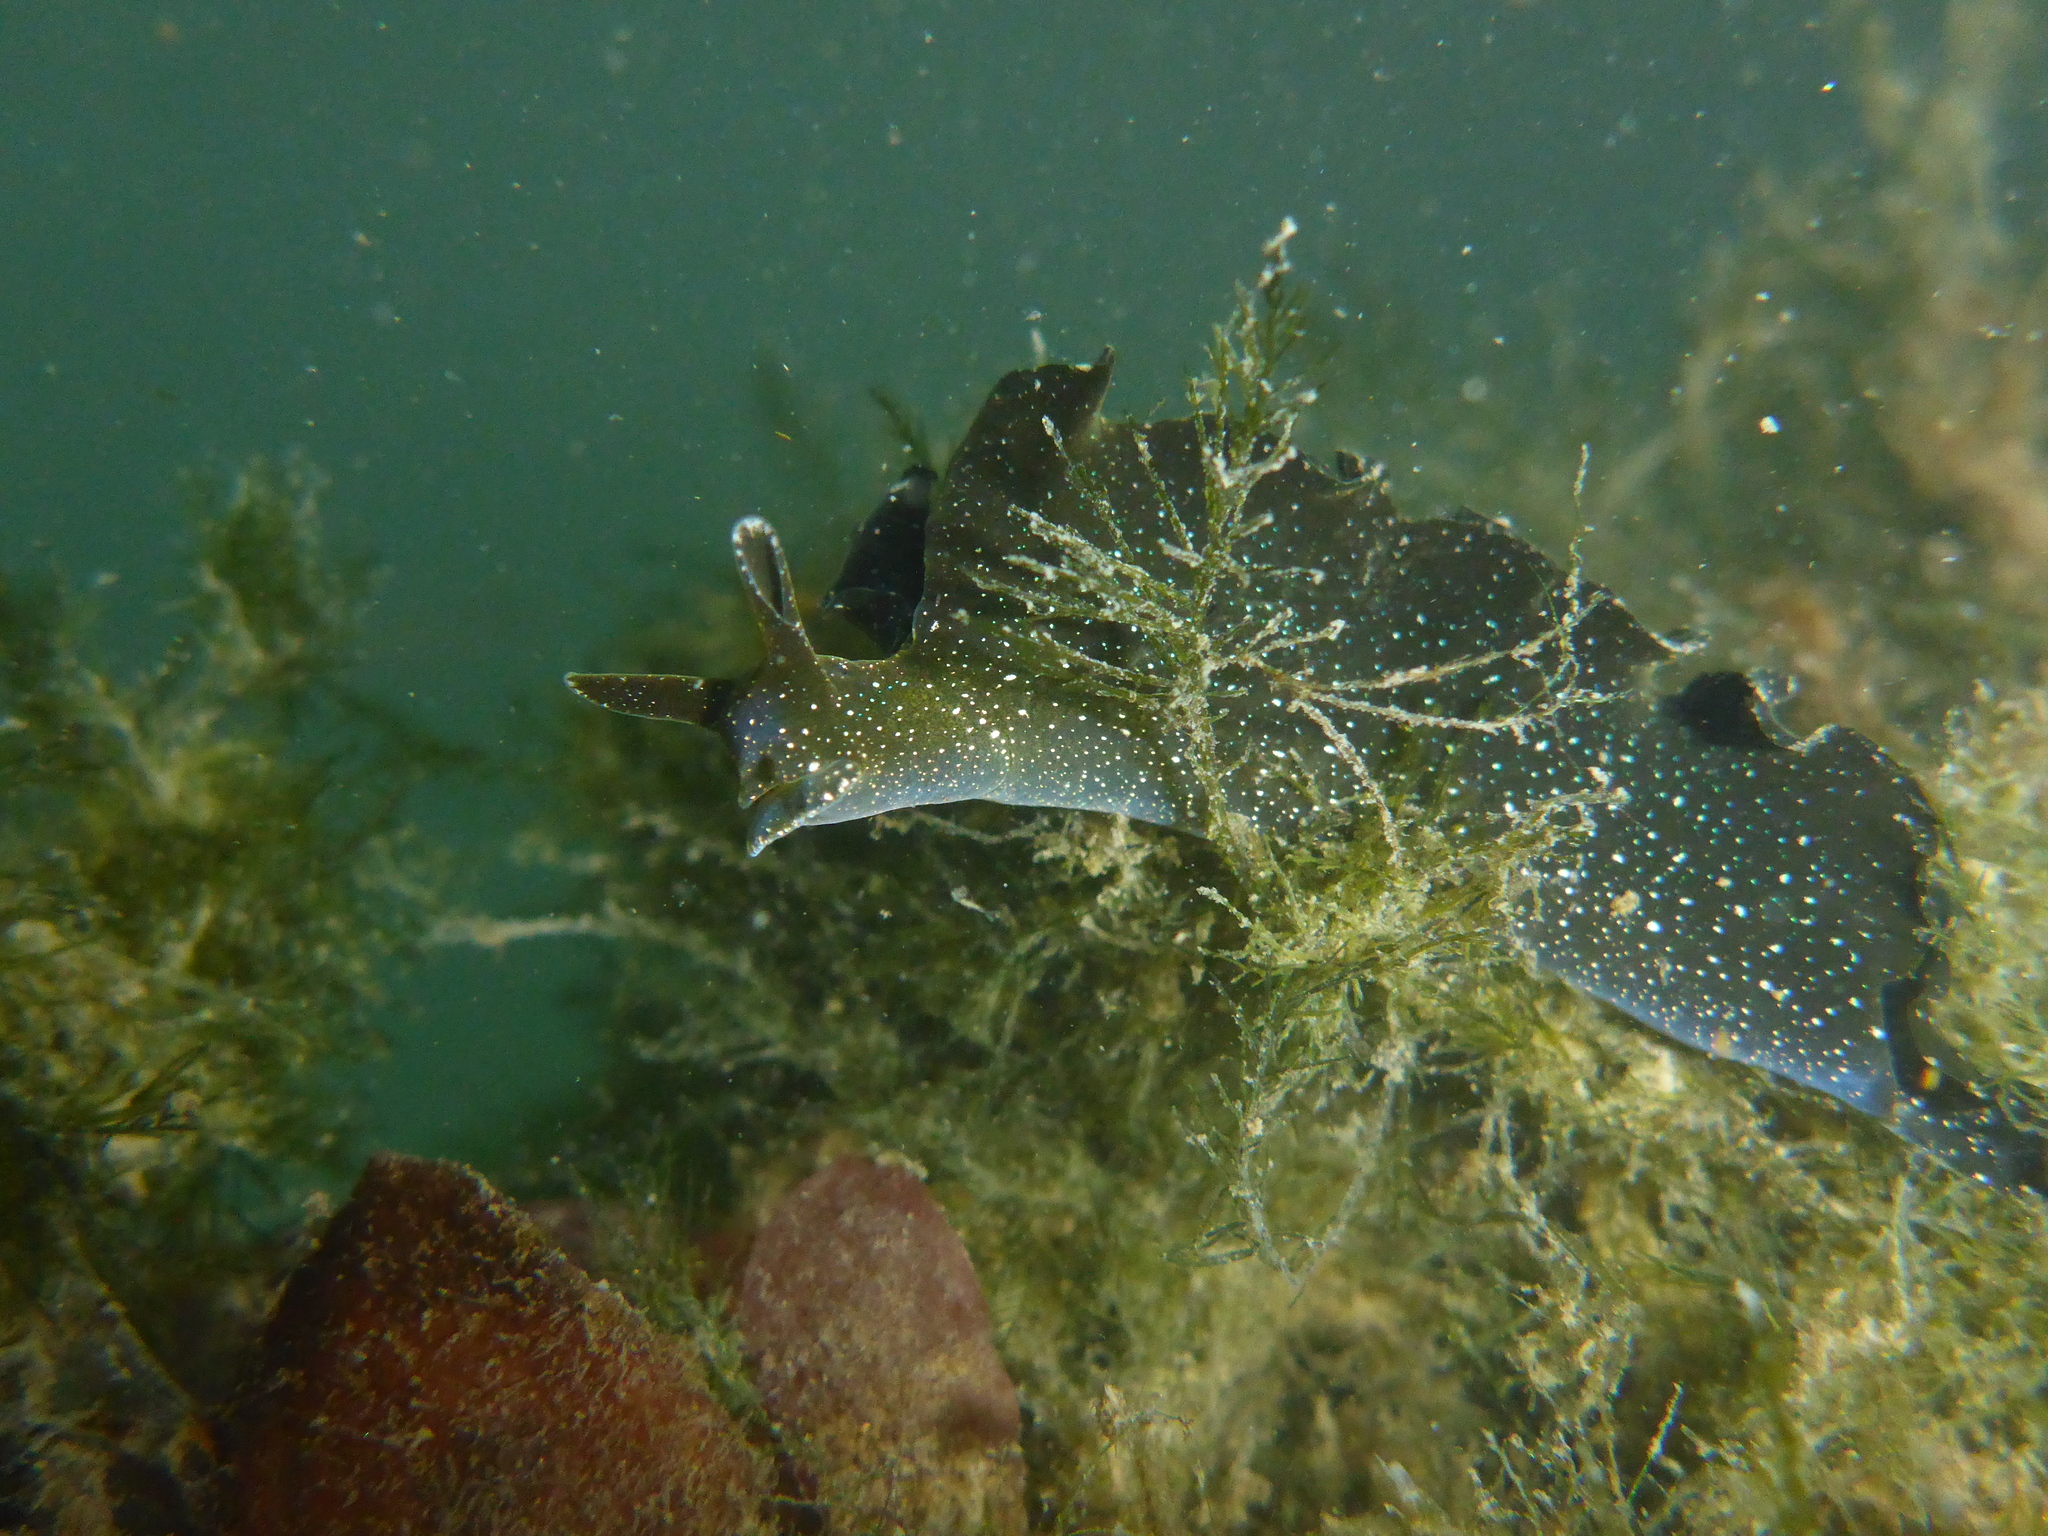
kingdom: Animalia
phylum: Mollusca
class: Gastropoda
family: Plakobranchidae
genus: Elysia
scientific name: Elysia hedgpethi
